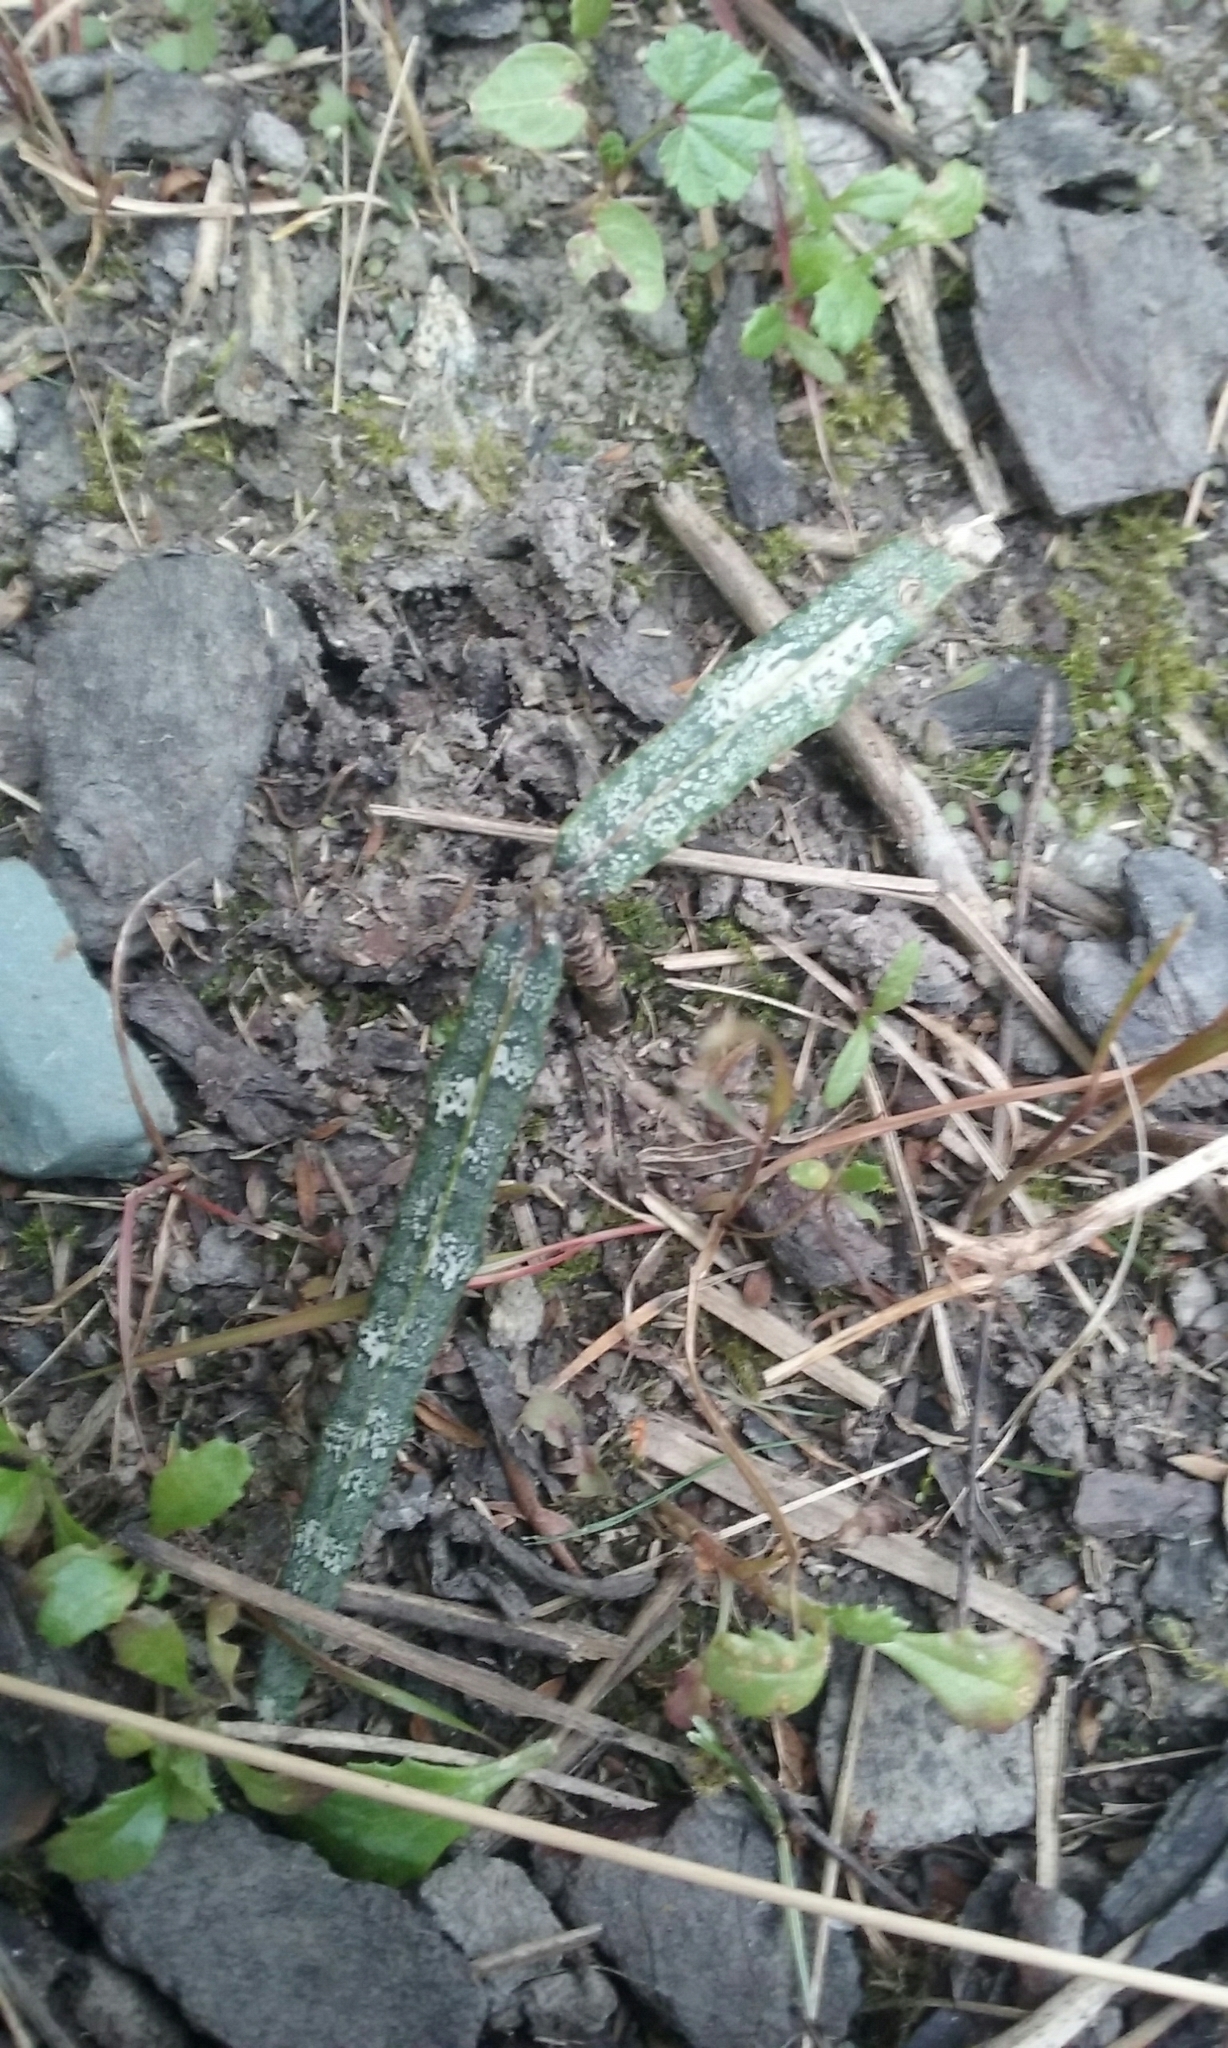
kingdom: Plantae
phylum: Tracheophyta
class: Magnoliopsida
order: Apiales
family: Araliaceae
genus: Pseudopanax
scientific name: Pseudopanax ferox
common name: Fierce lancewood
